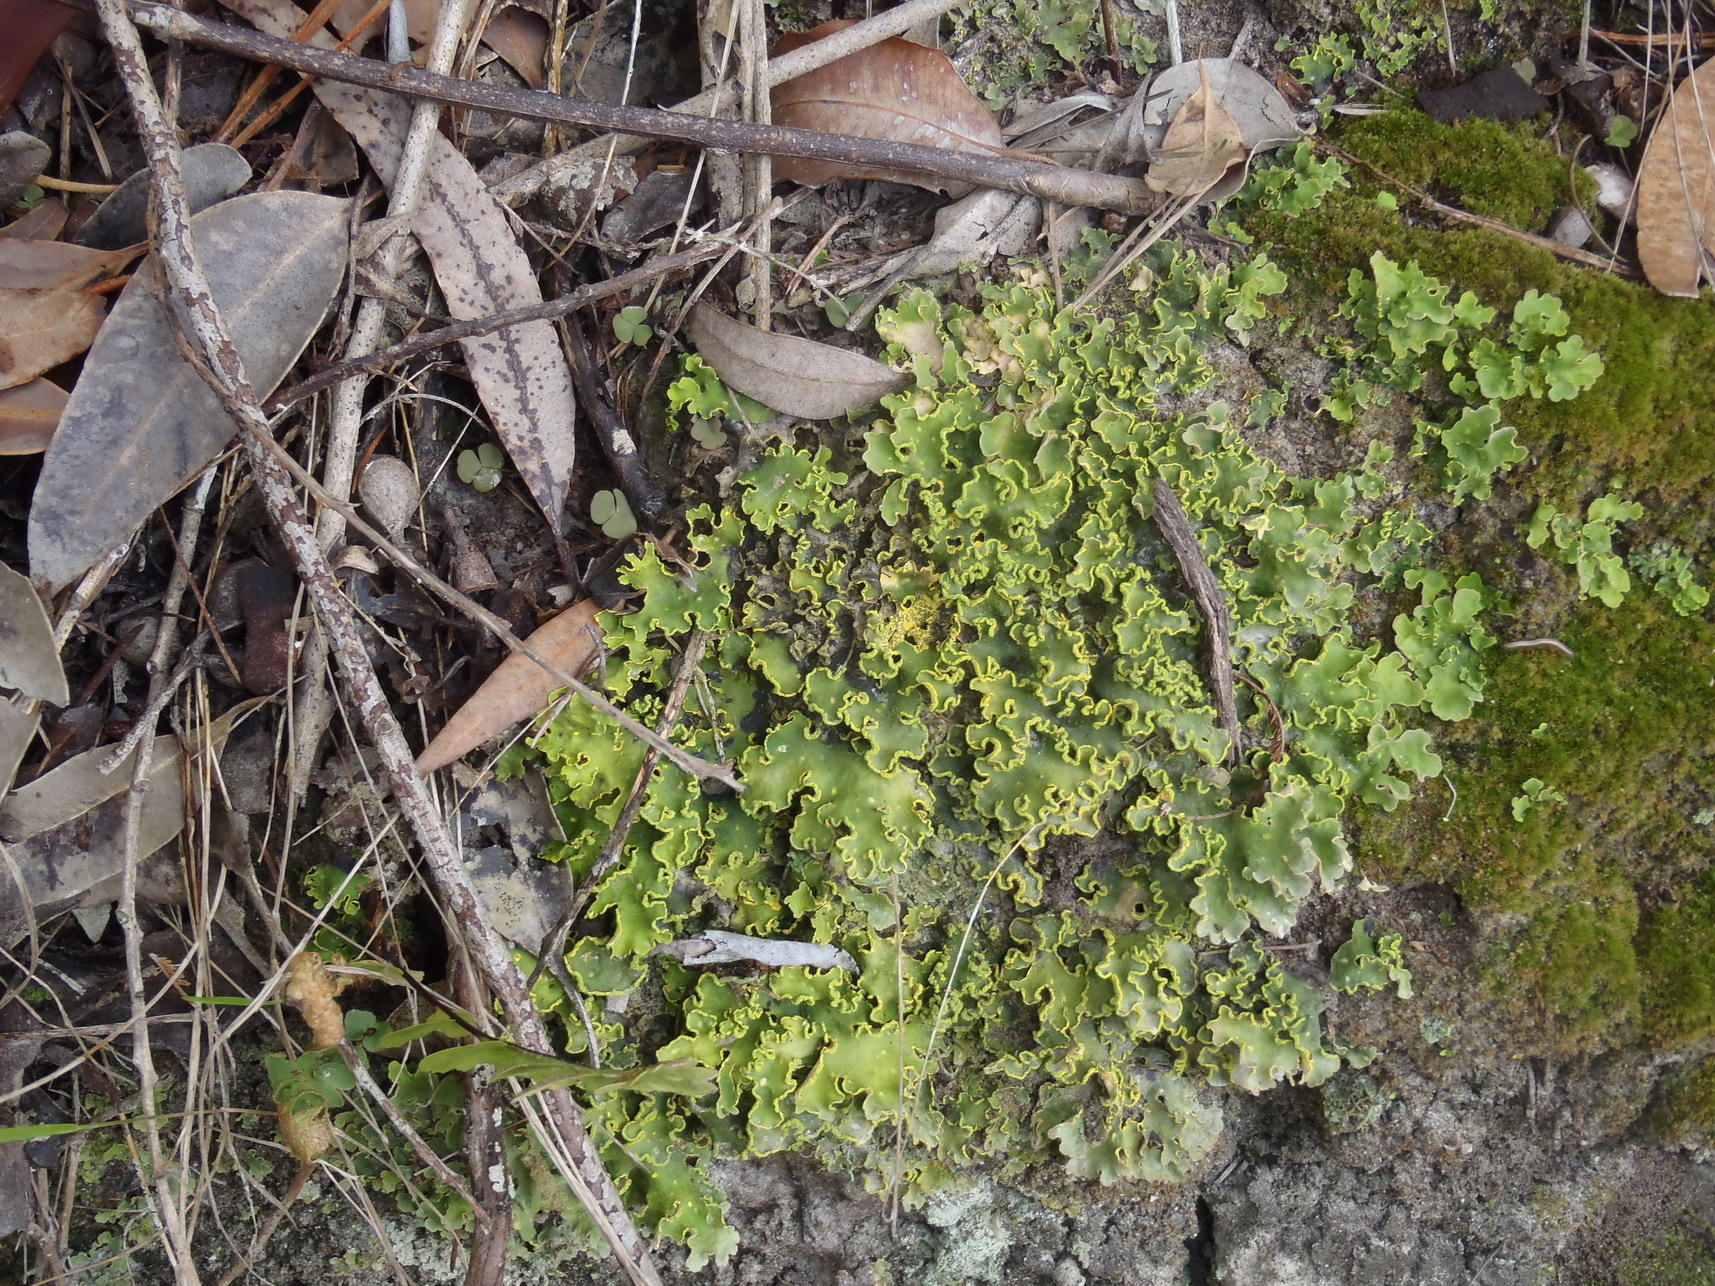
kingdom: Fungi
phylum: Ascomycota
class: Lecanoromycetes
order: Peltigerales
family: Lobariaceae
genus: Pseudocyphellaria
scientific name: Pseudocyphellaria aurata
